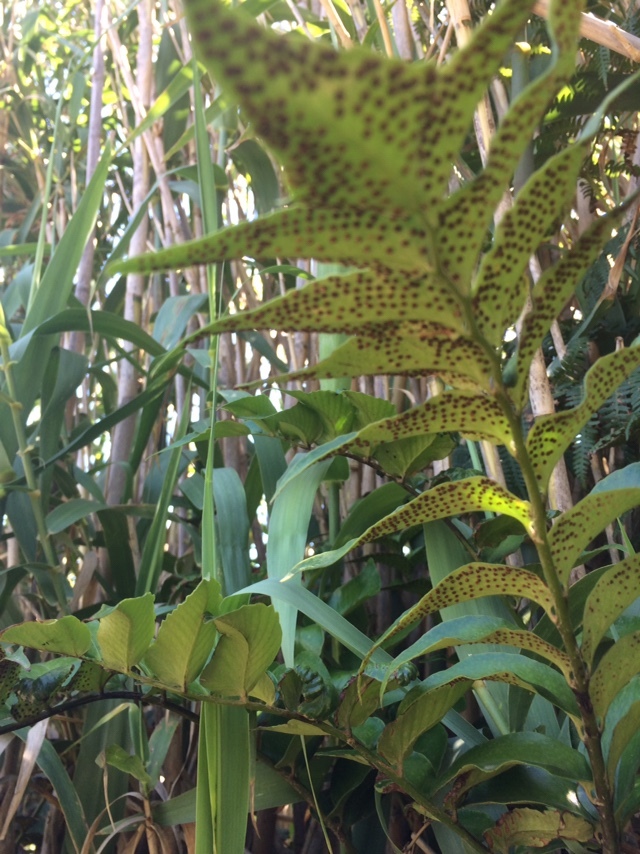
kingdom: Plantae
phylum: Tracheophyta
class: Polypodiopsida
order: Polypodiales
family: Dryopteridaceae
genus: Cyrtomium
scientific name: Cyrtomium falcatum
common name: House holly-fern
